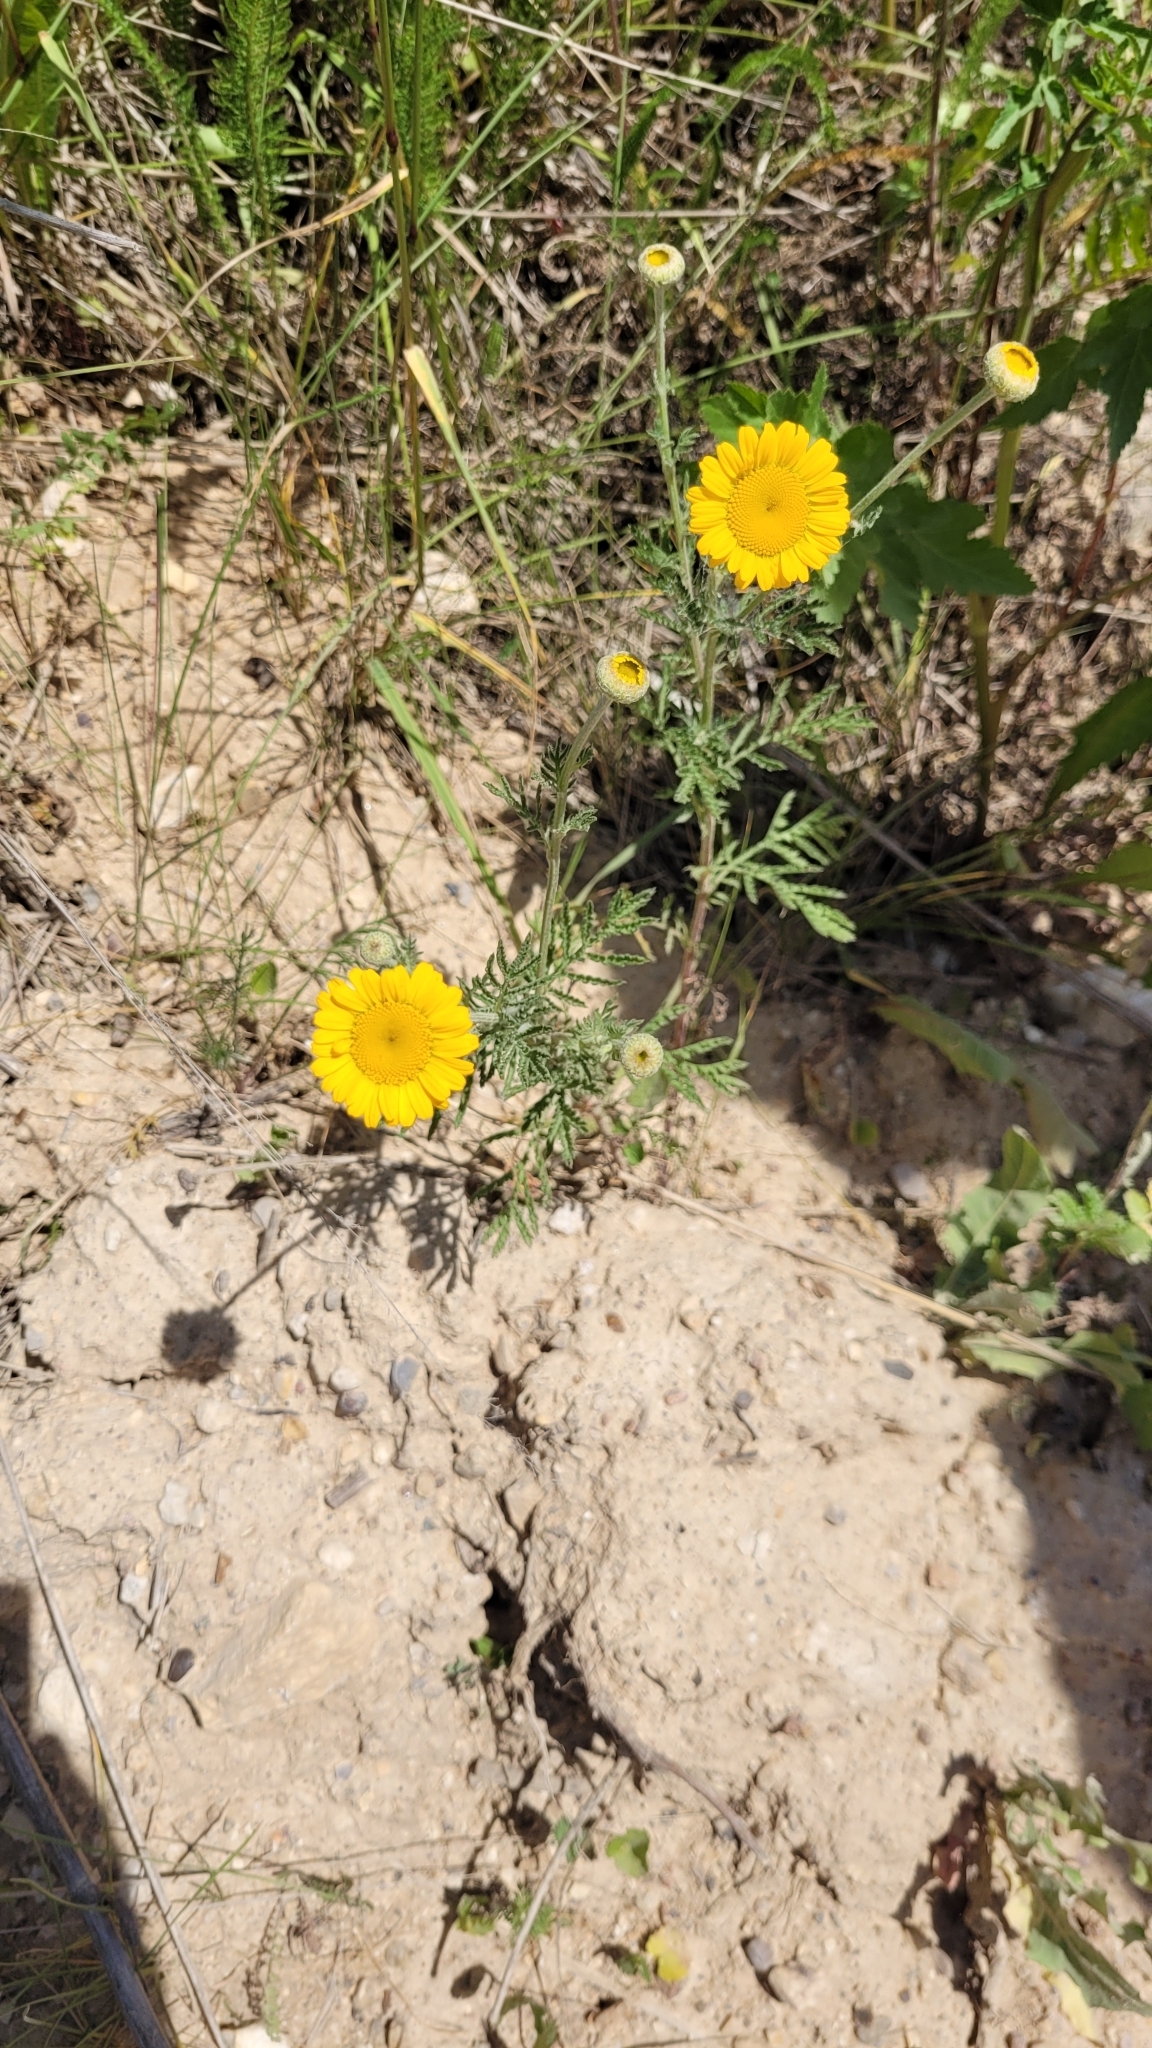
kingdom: Plantae
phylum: Tracheophyta
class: Magnoliopsida
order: Asterales
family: Asteraceae
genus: Cota
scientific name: Cota tinctoria
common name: Golden chamomile
